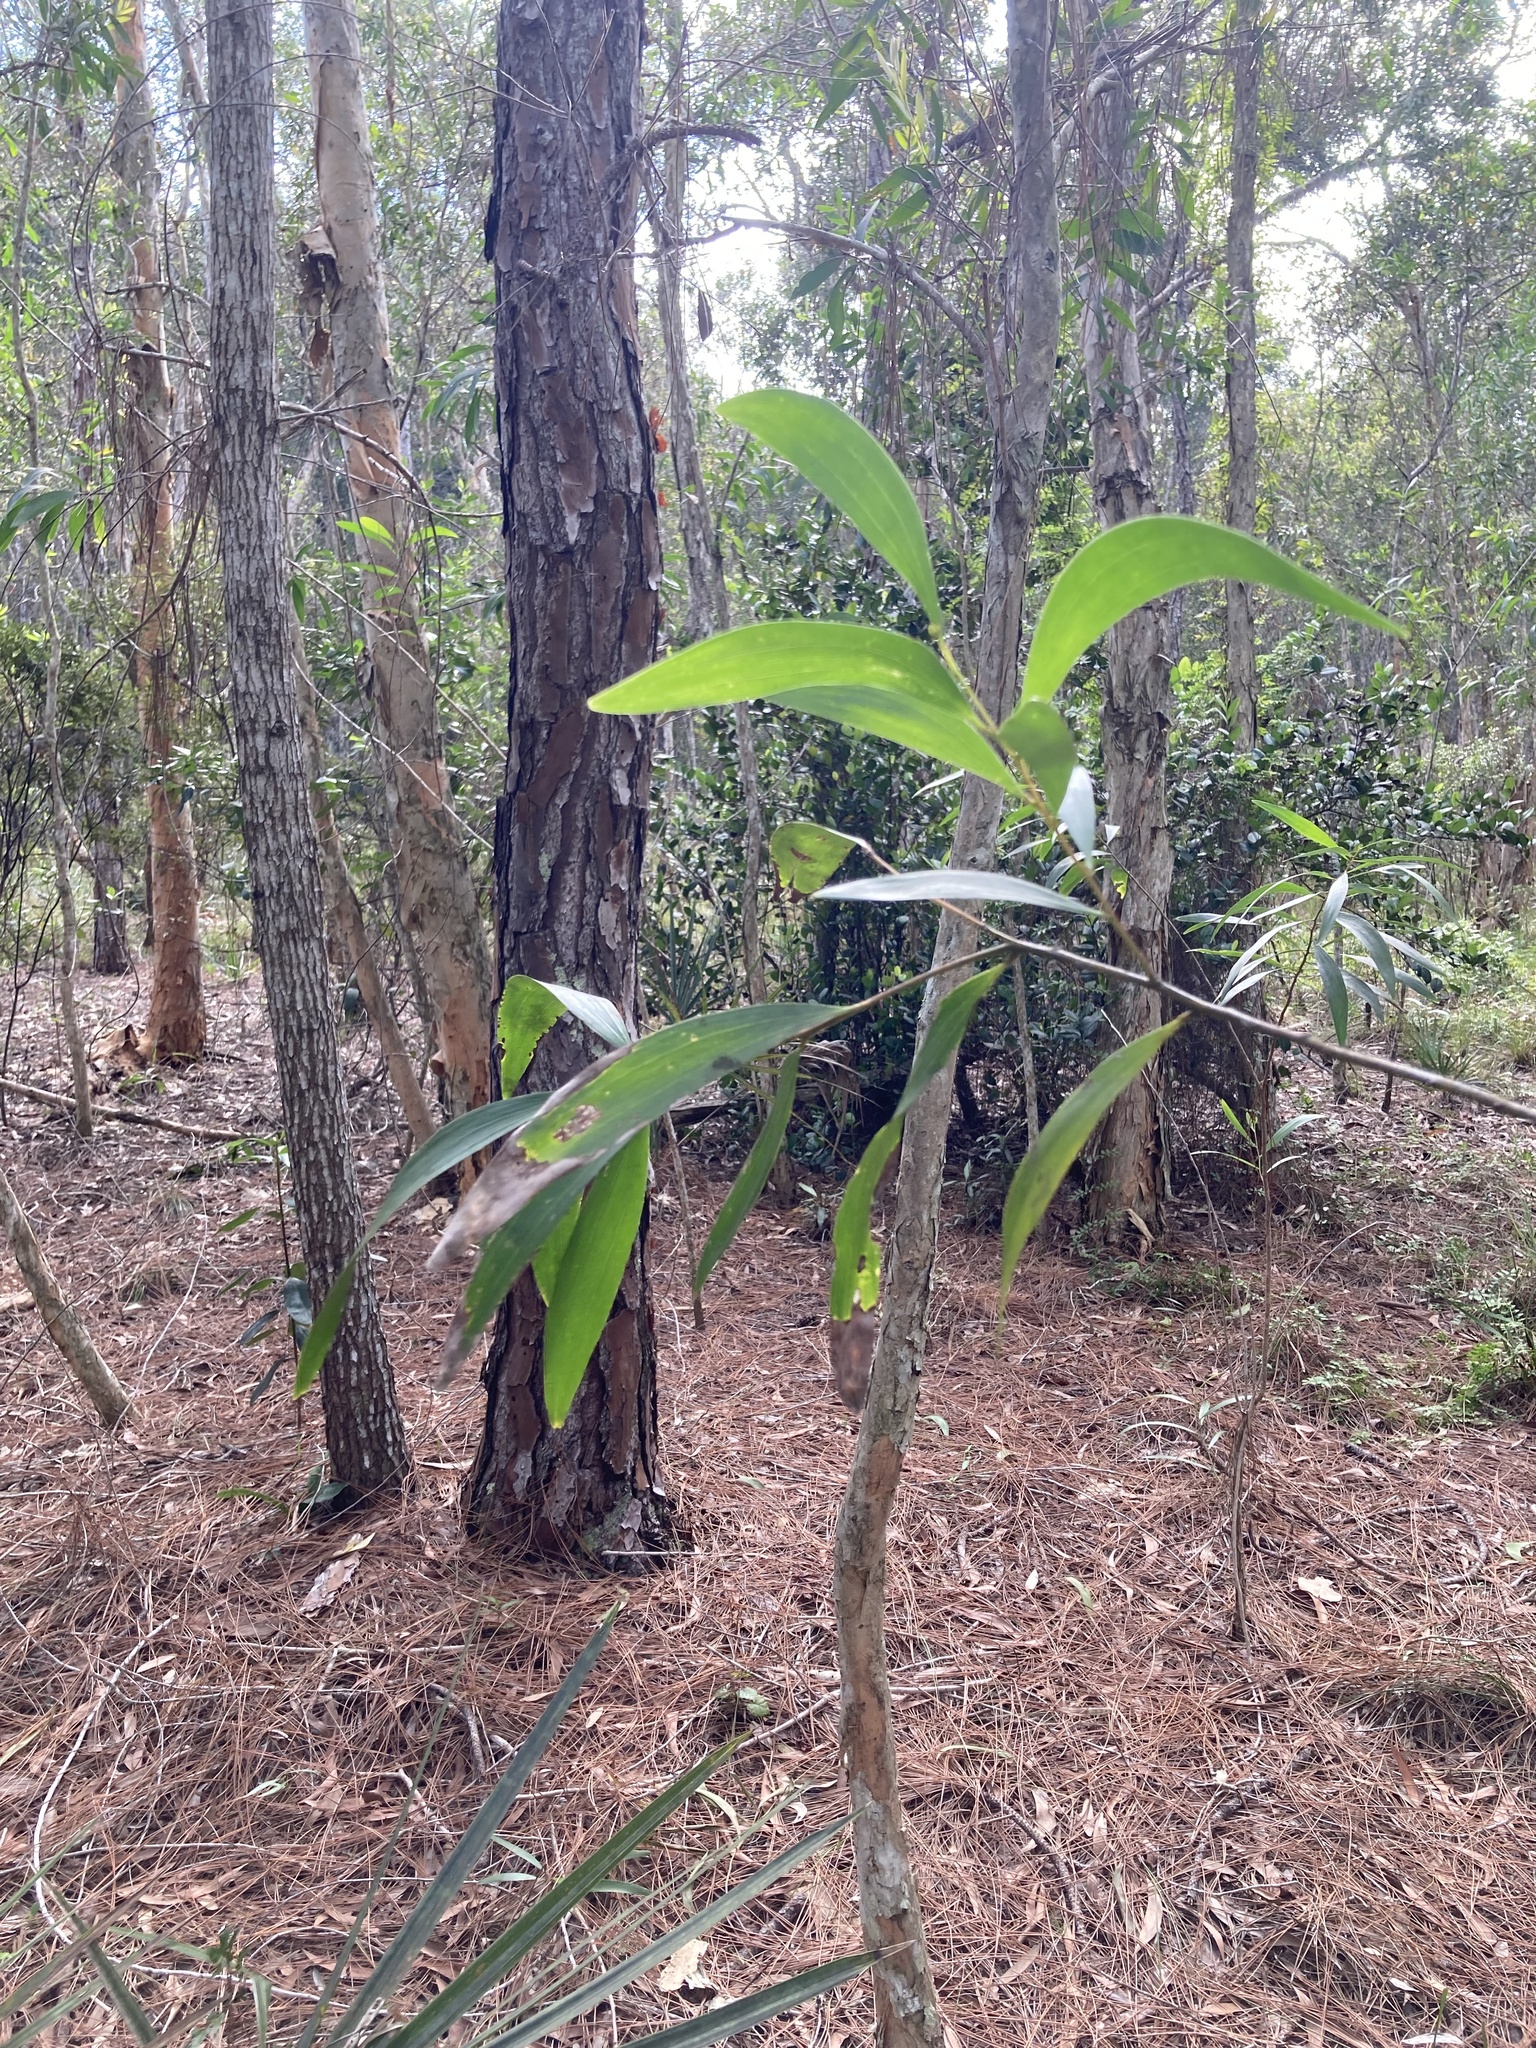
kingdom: Plantae
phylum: Tracheophyta
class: Magnoliopsida
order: Fabales
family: Fabaceae
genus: Acacia
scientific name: Acacia auriculiformis
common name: Earleaf acacia
